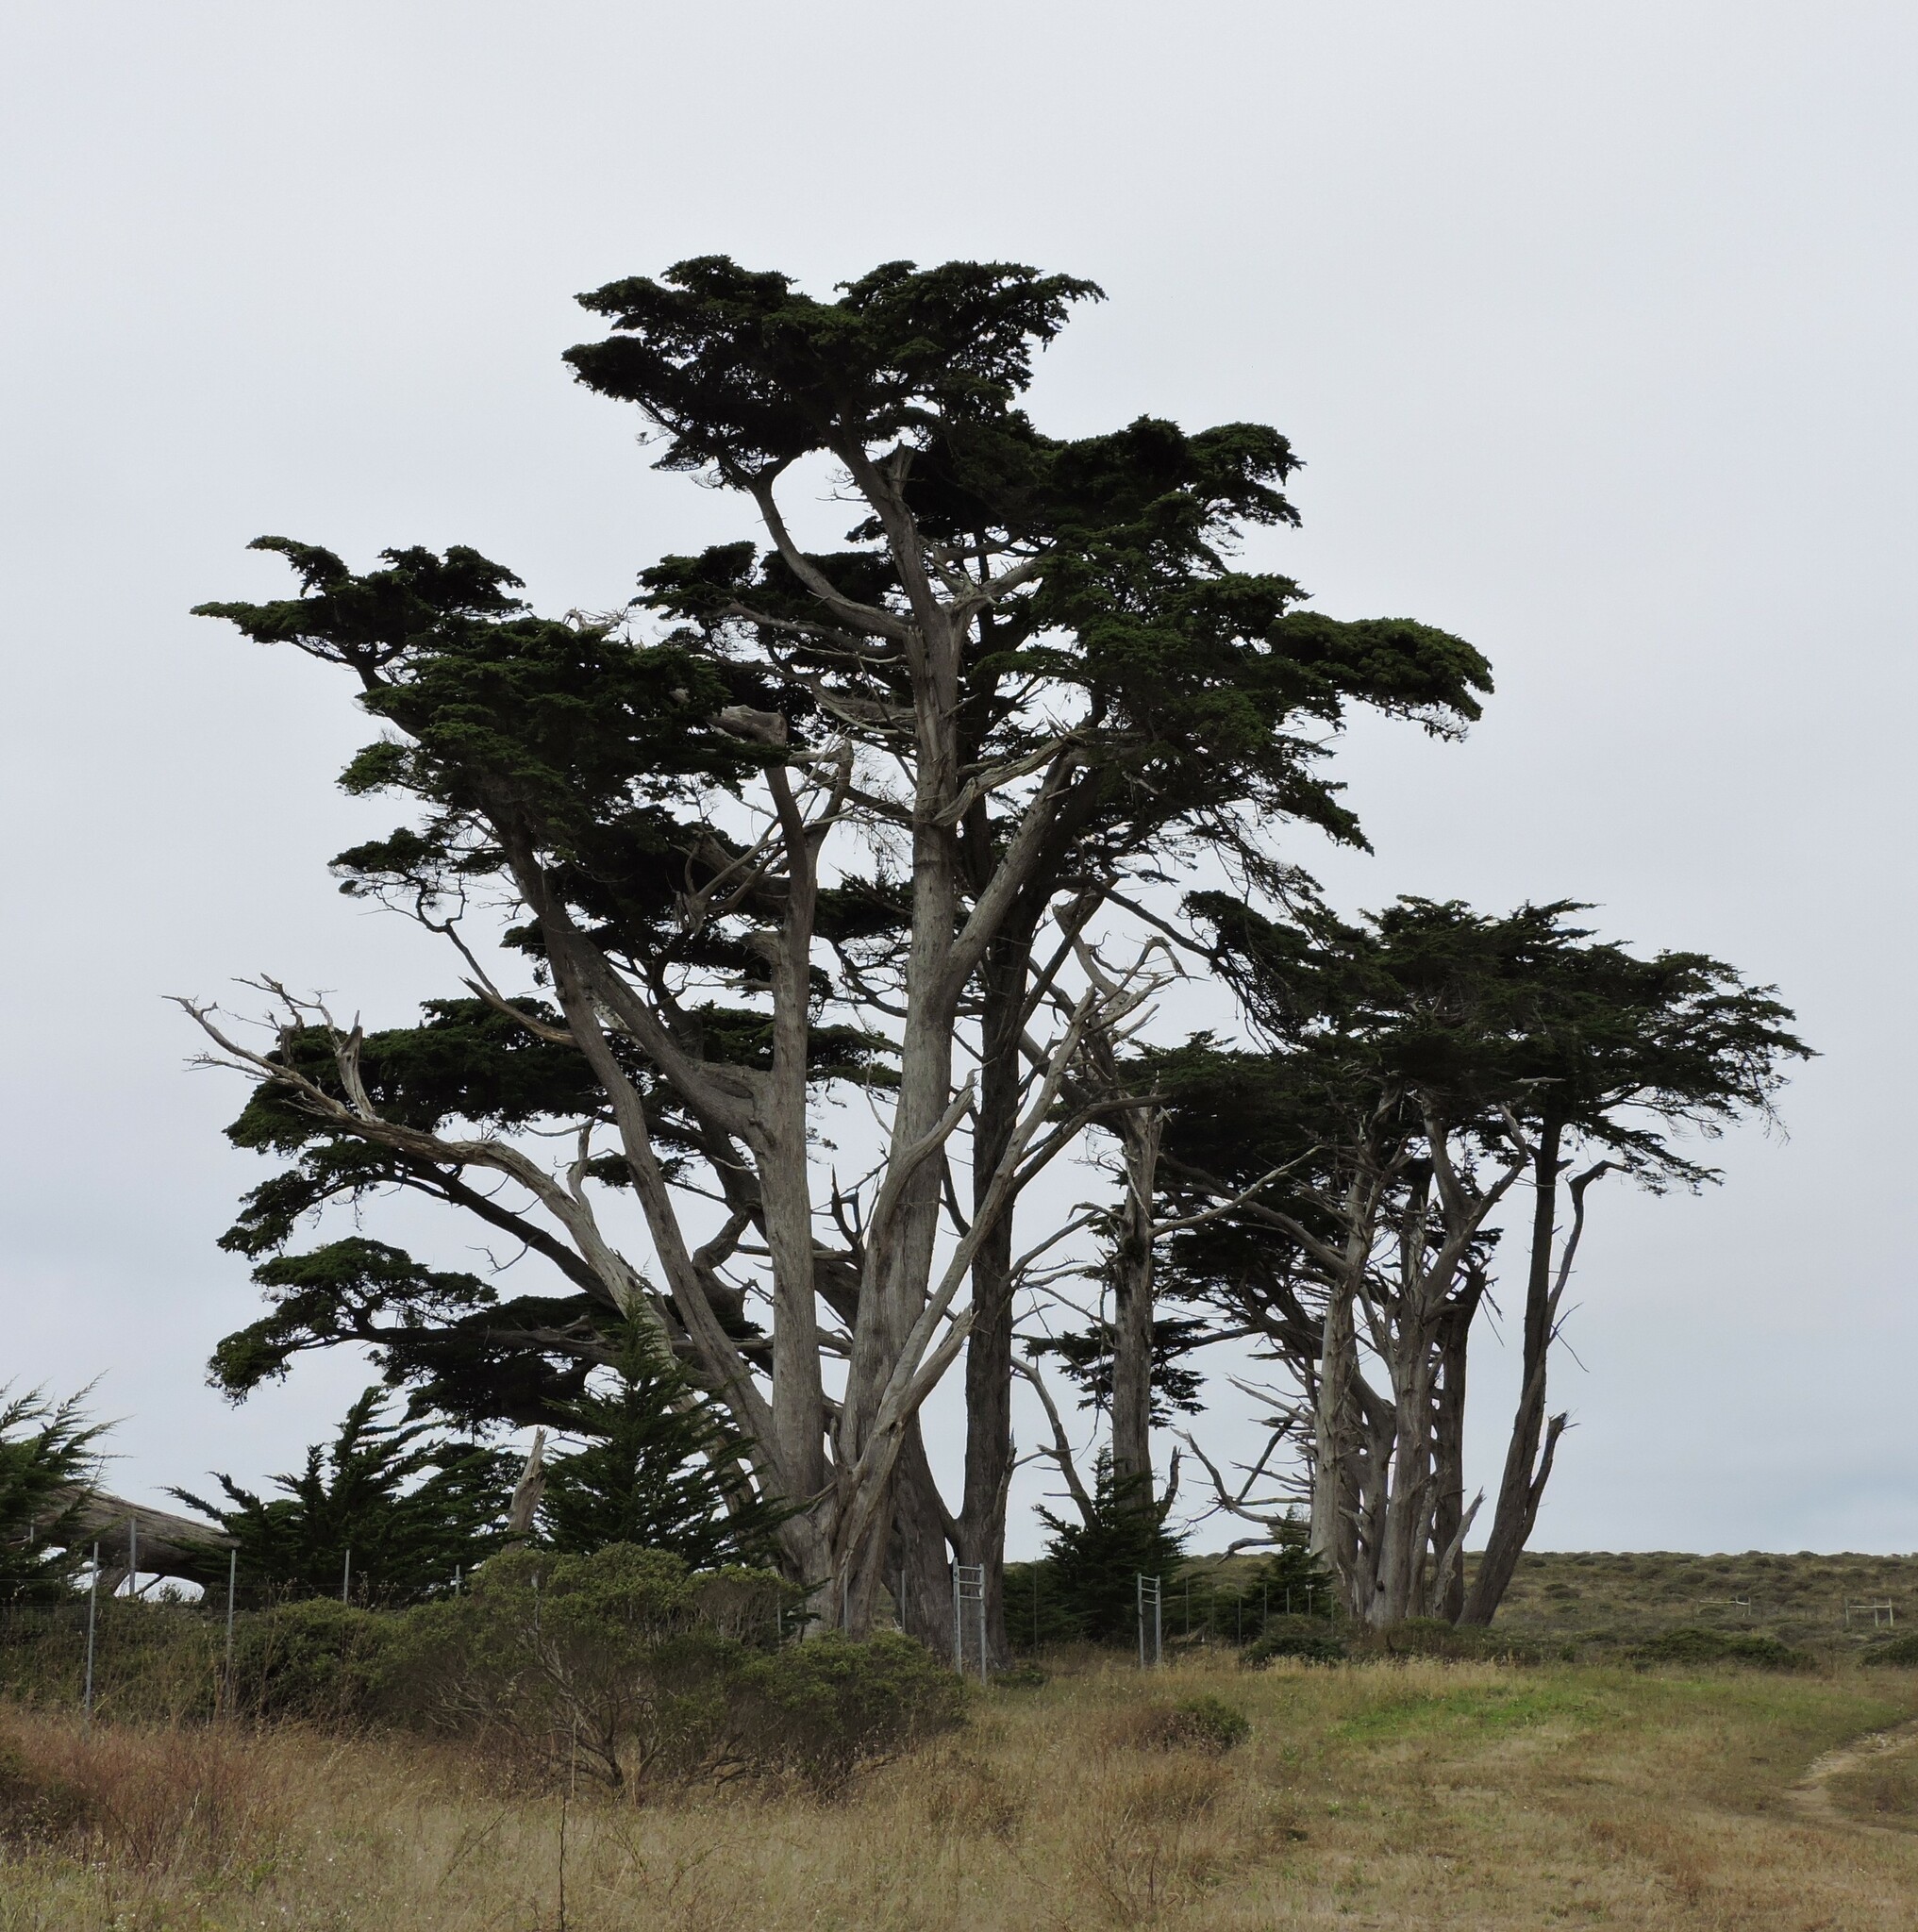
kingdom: Plantae
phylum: Tracheophyta
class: Pinopsida
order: Pinales
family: Cupressaceae
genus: Cupressus
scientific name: Cupressus macrocarpa
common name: Monterey cypress
